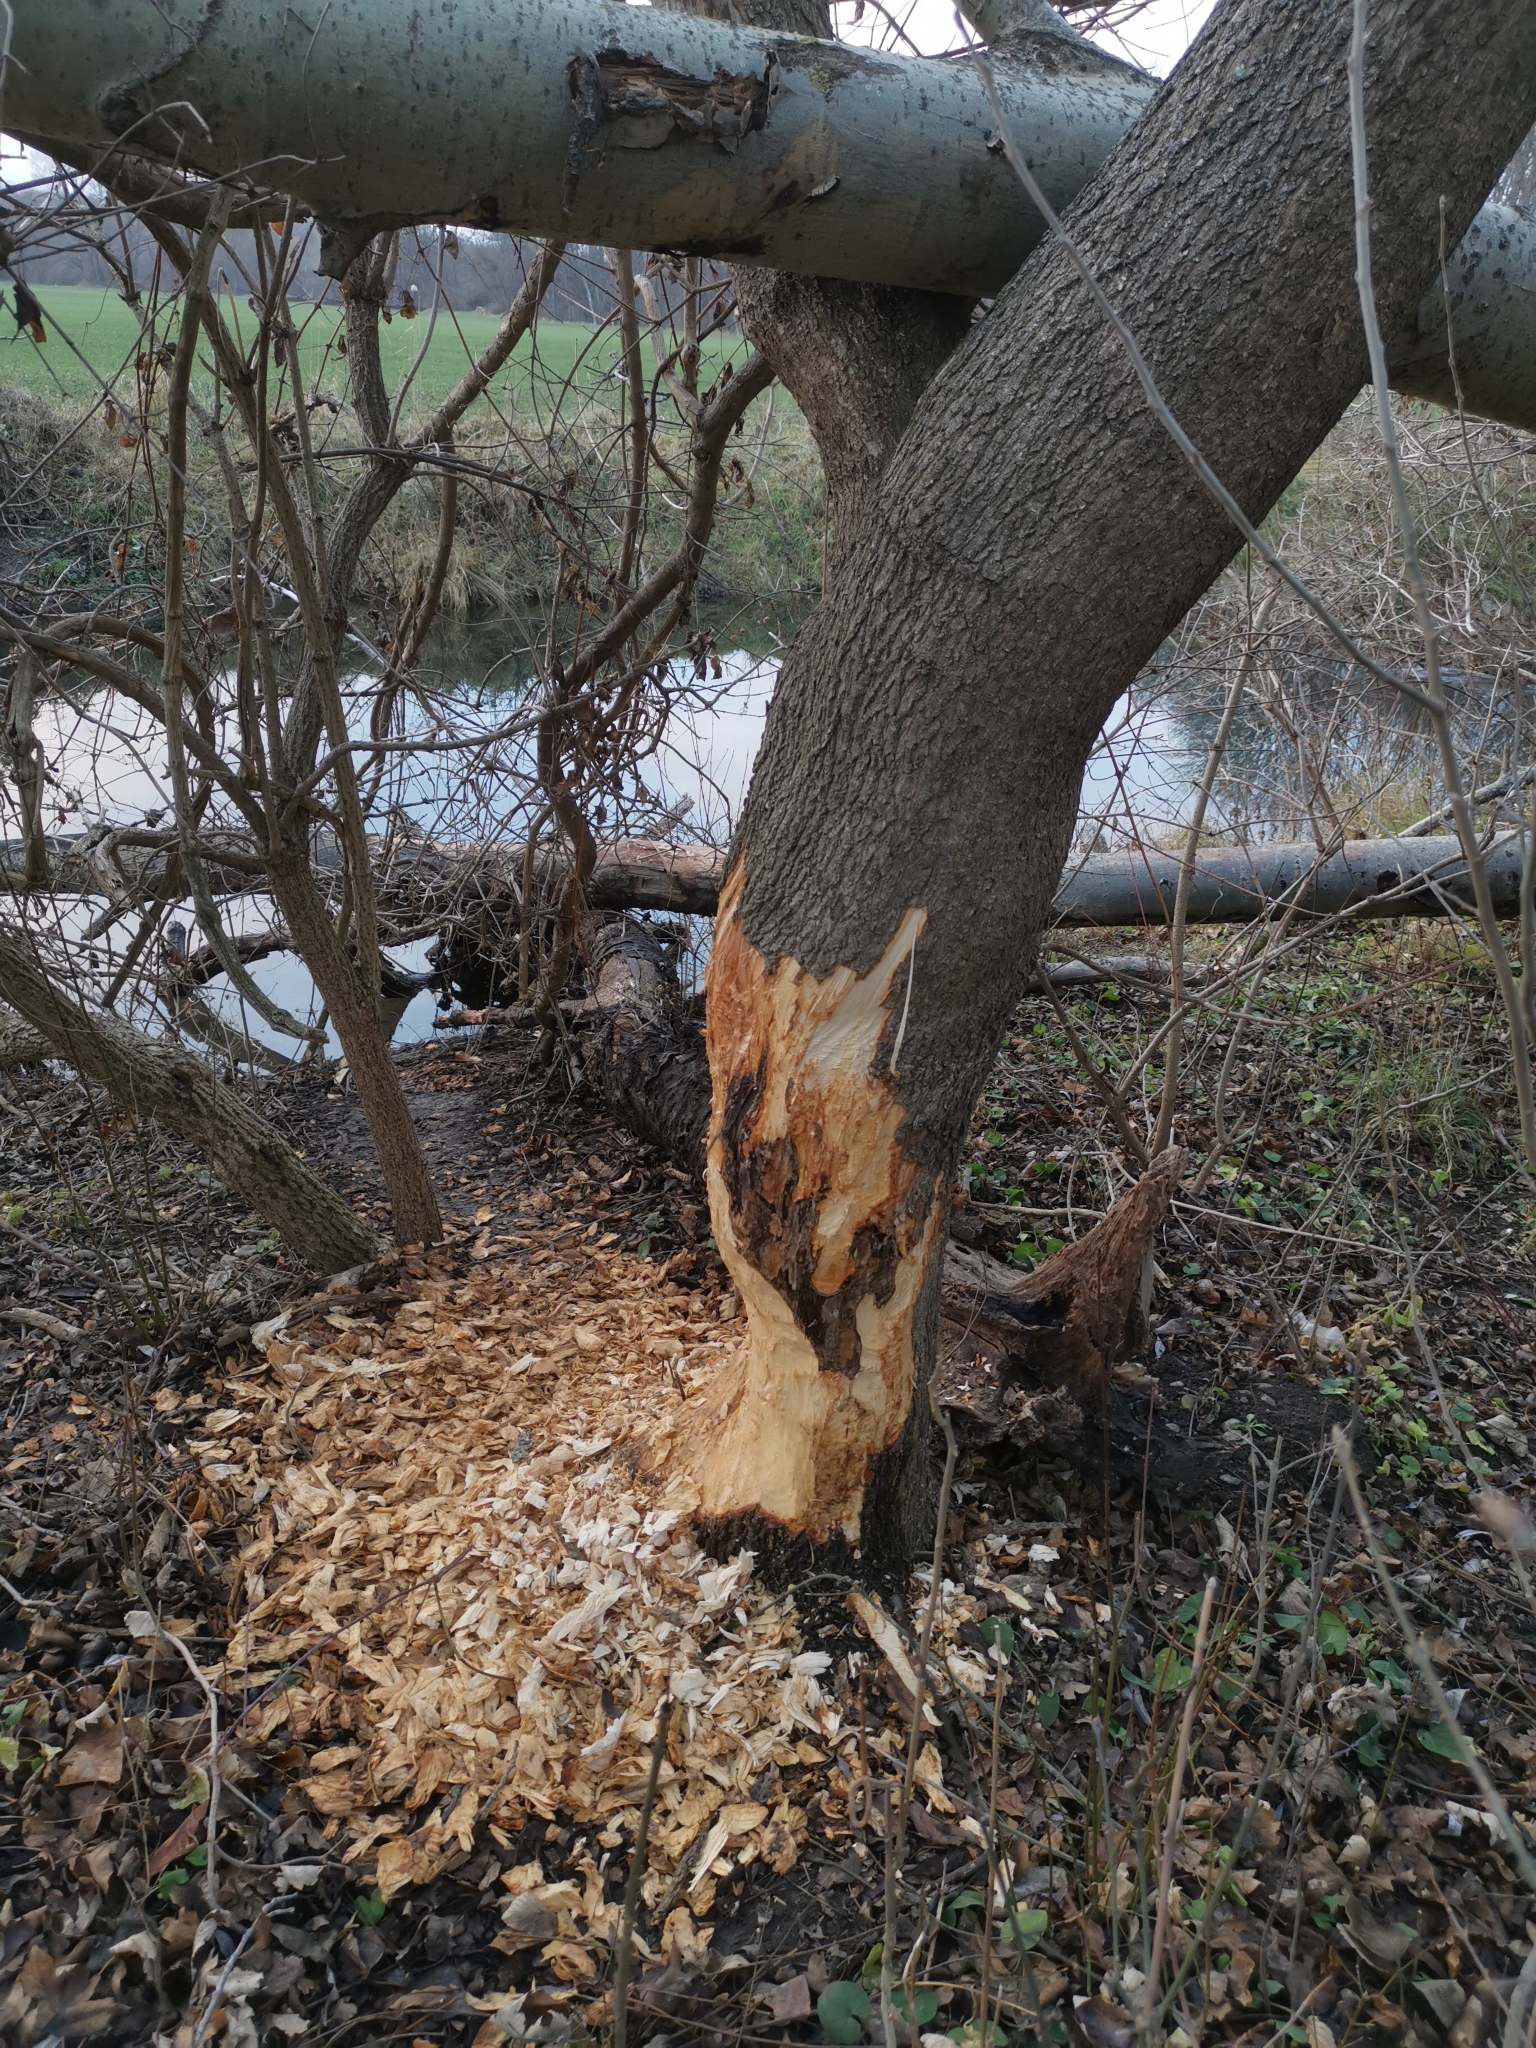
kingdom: Animalia
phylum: Chordata
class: Mammalia
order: Rodentia
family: Castoridae
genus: Castor
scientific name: Castor fiber
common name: Eurasian beaver
